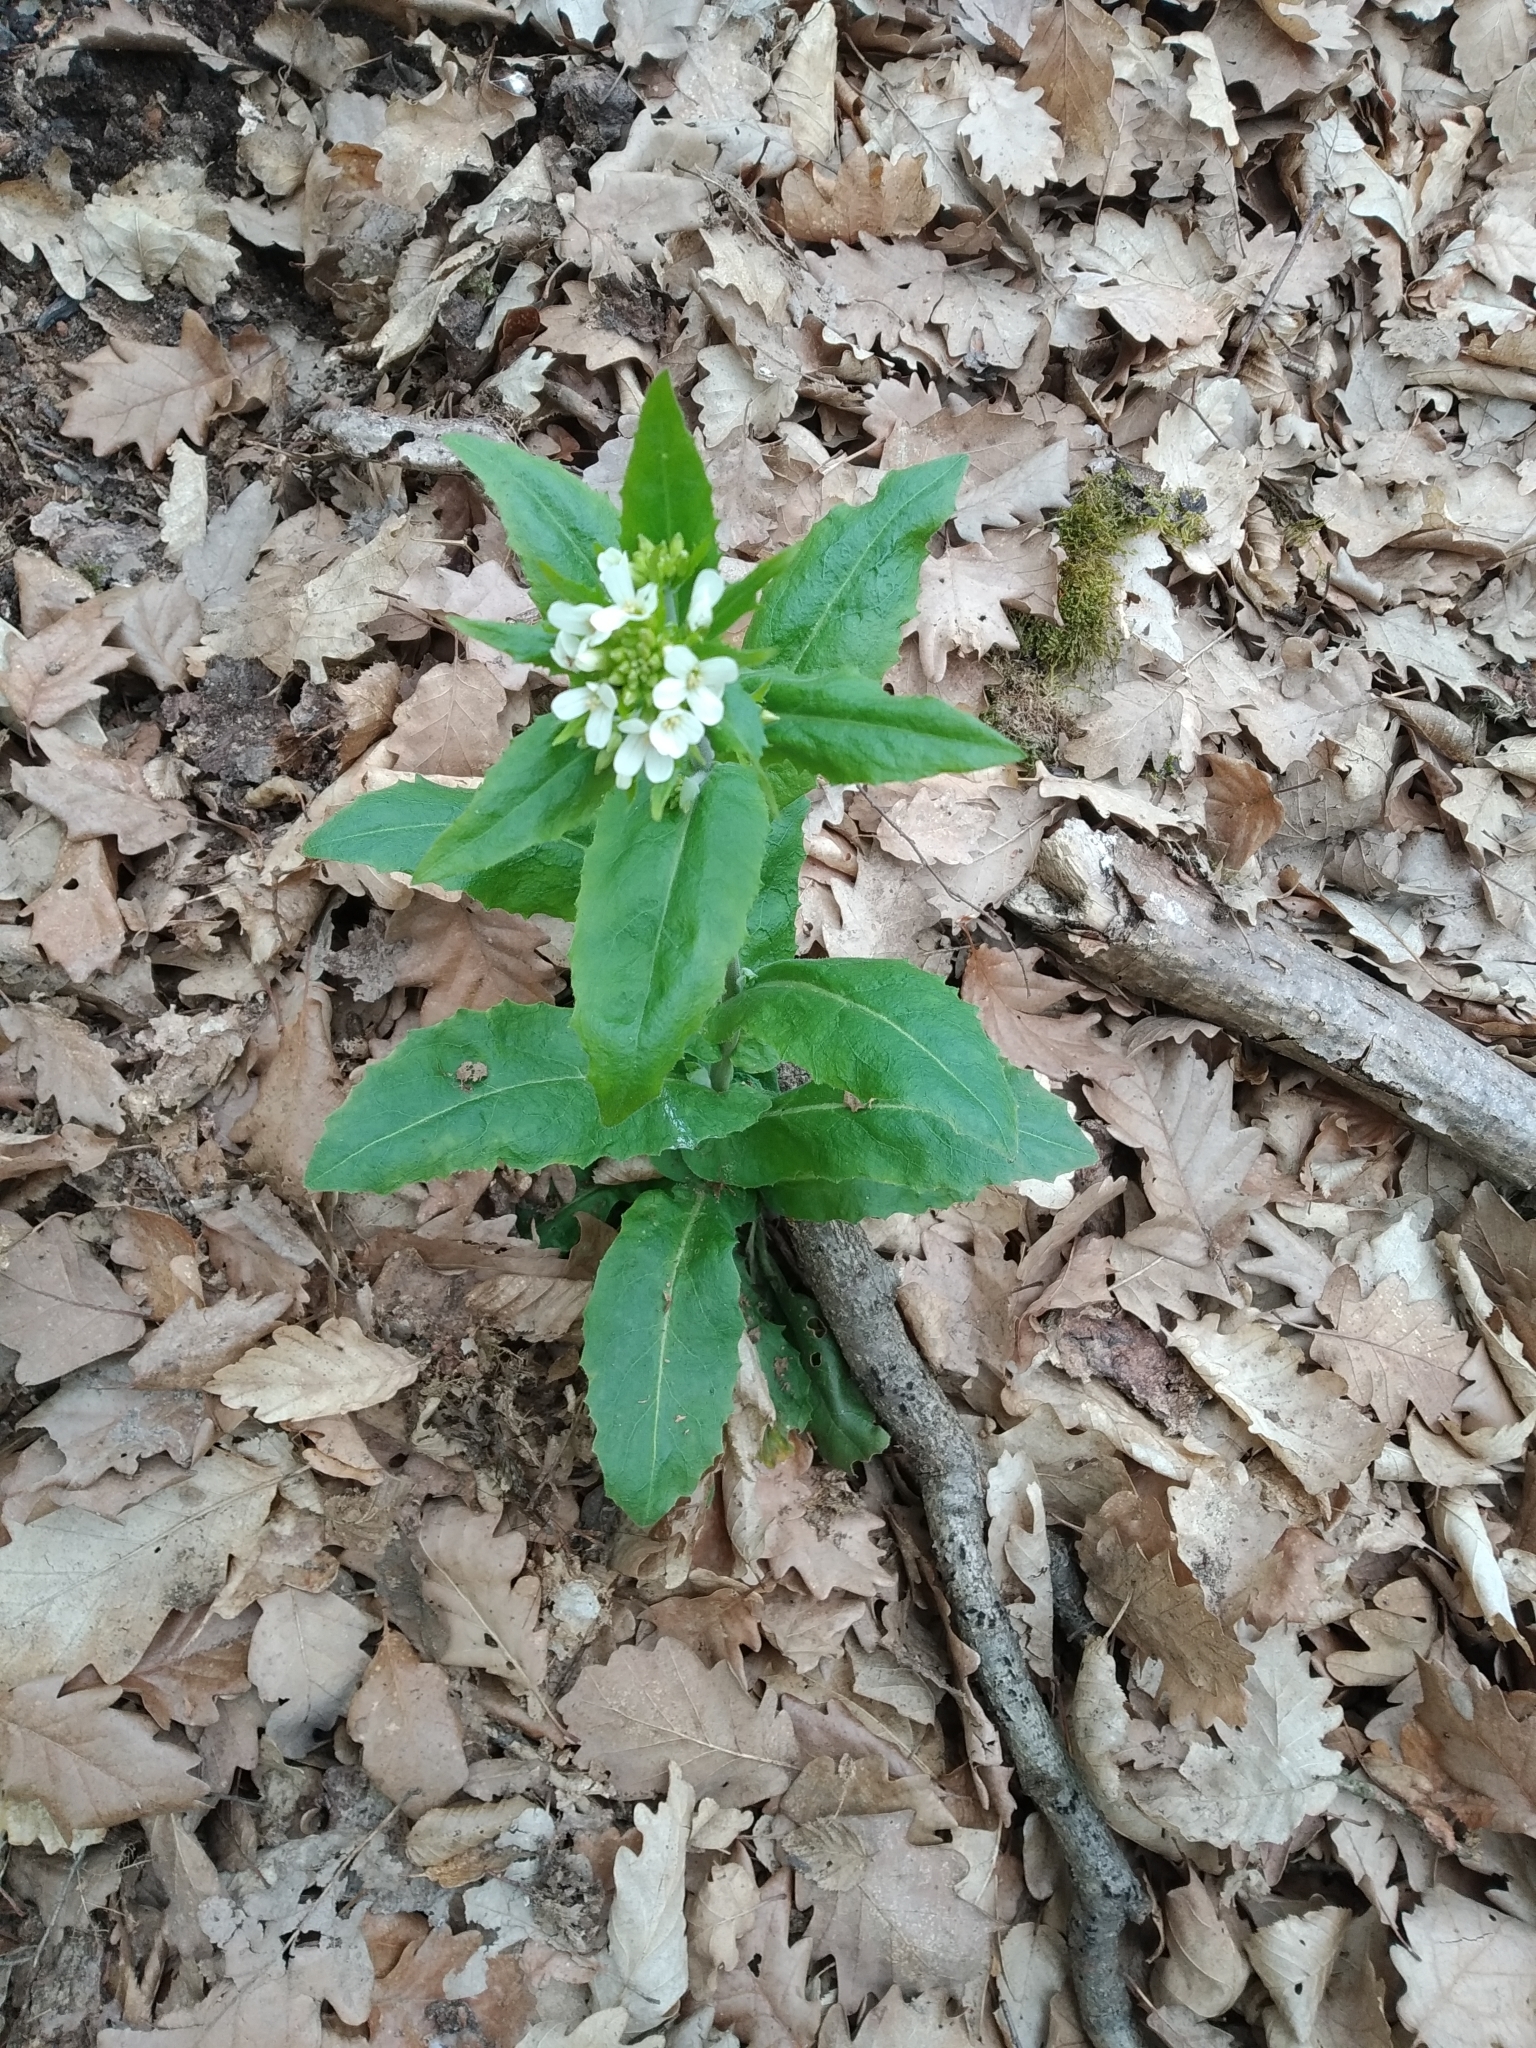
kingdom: Plantae
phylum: Tracheophyta
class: Magnoliopsida
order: Brassicales
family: Brassicaceae
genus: Pseudoturritis
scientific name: Pseudoturritis turrita
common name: Tower cress
